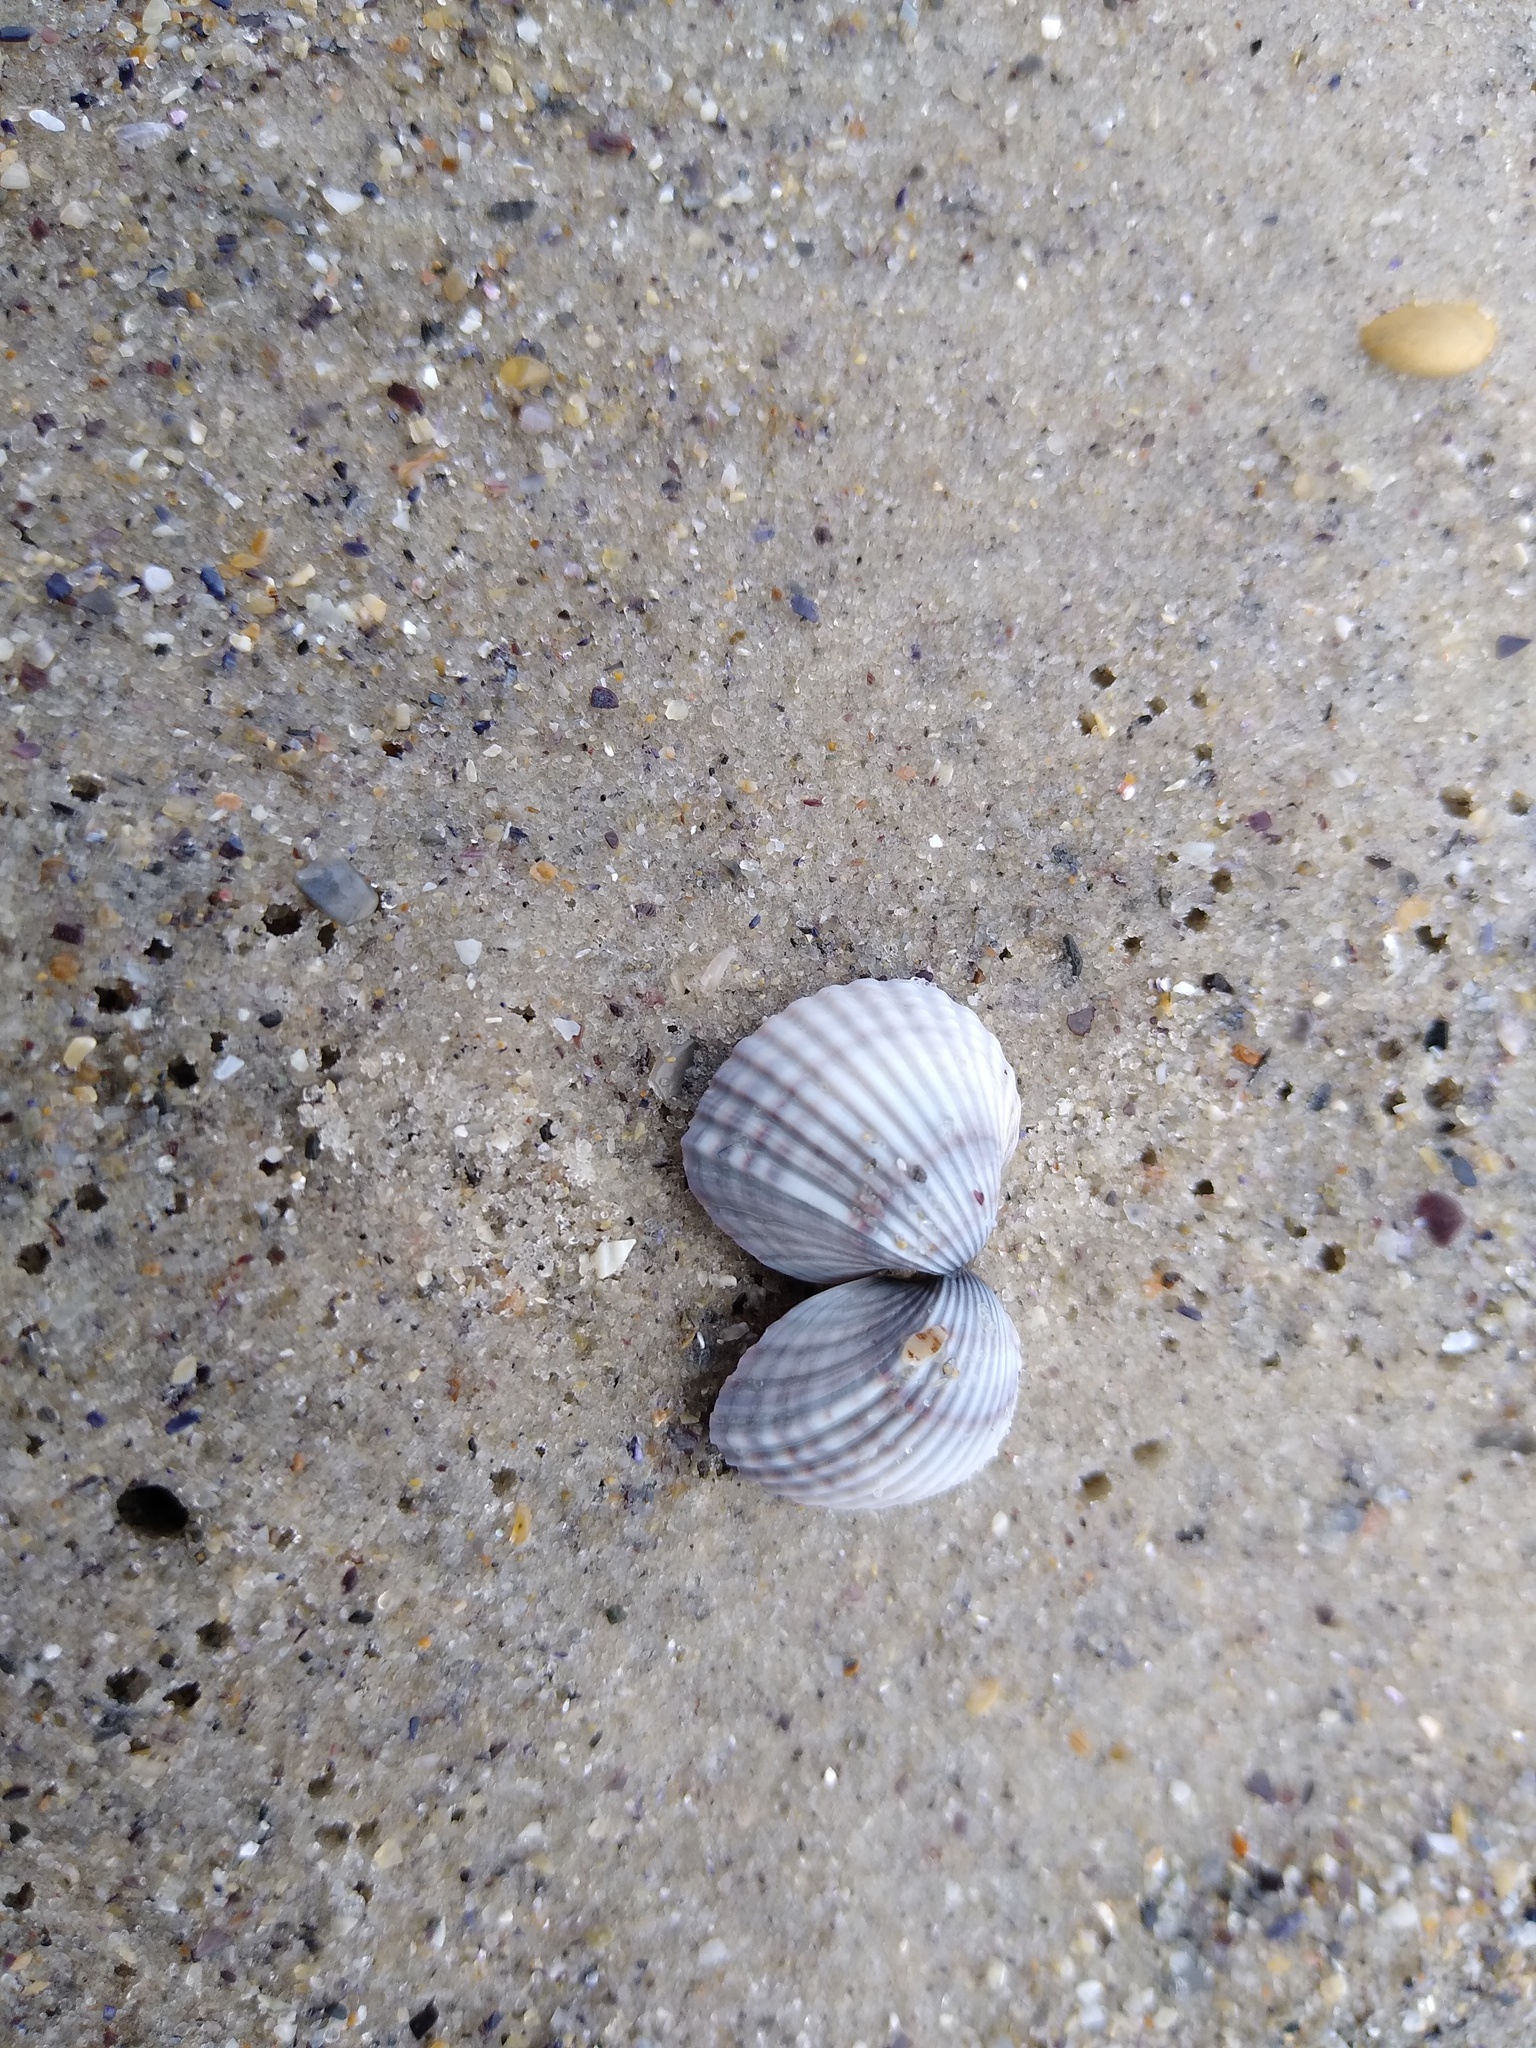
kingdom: Animalia
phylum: Mollusca
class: Bivalvia
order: Cardiida
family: Cardiidae
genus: Cerastoderma
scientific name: Cerastoderma glaucum
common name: Lagoon cockle
